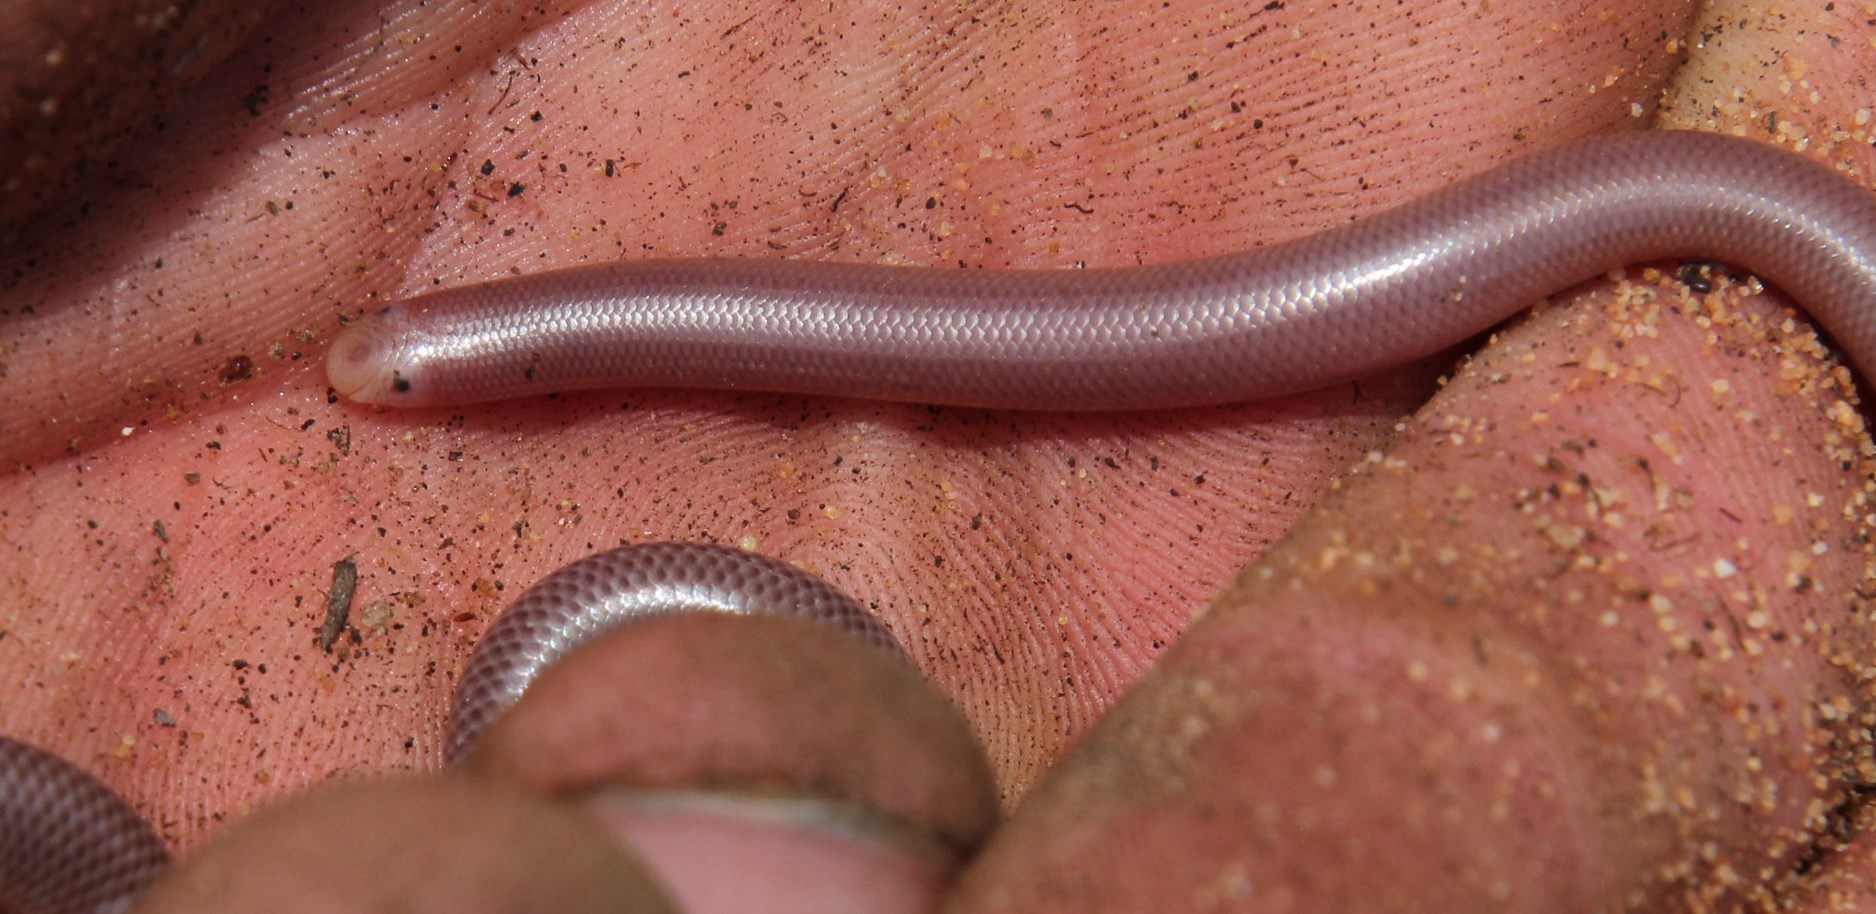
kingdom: Animalia
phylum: Chordata
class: Squamata
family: Typhlopidae
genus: Rhinotyphlops
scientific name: Rhinotyphlops lalandei
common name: Delalande's beaked blind snake
